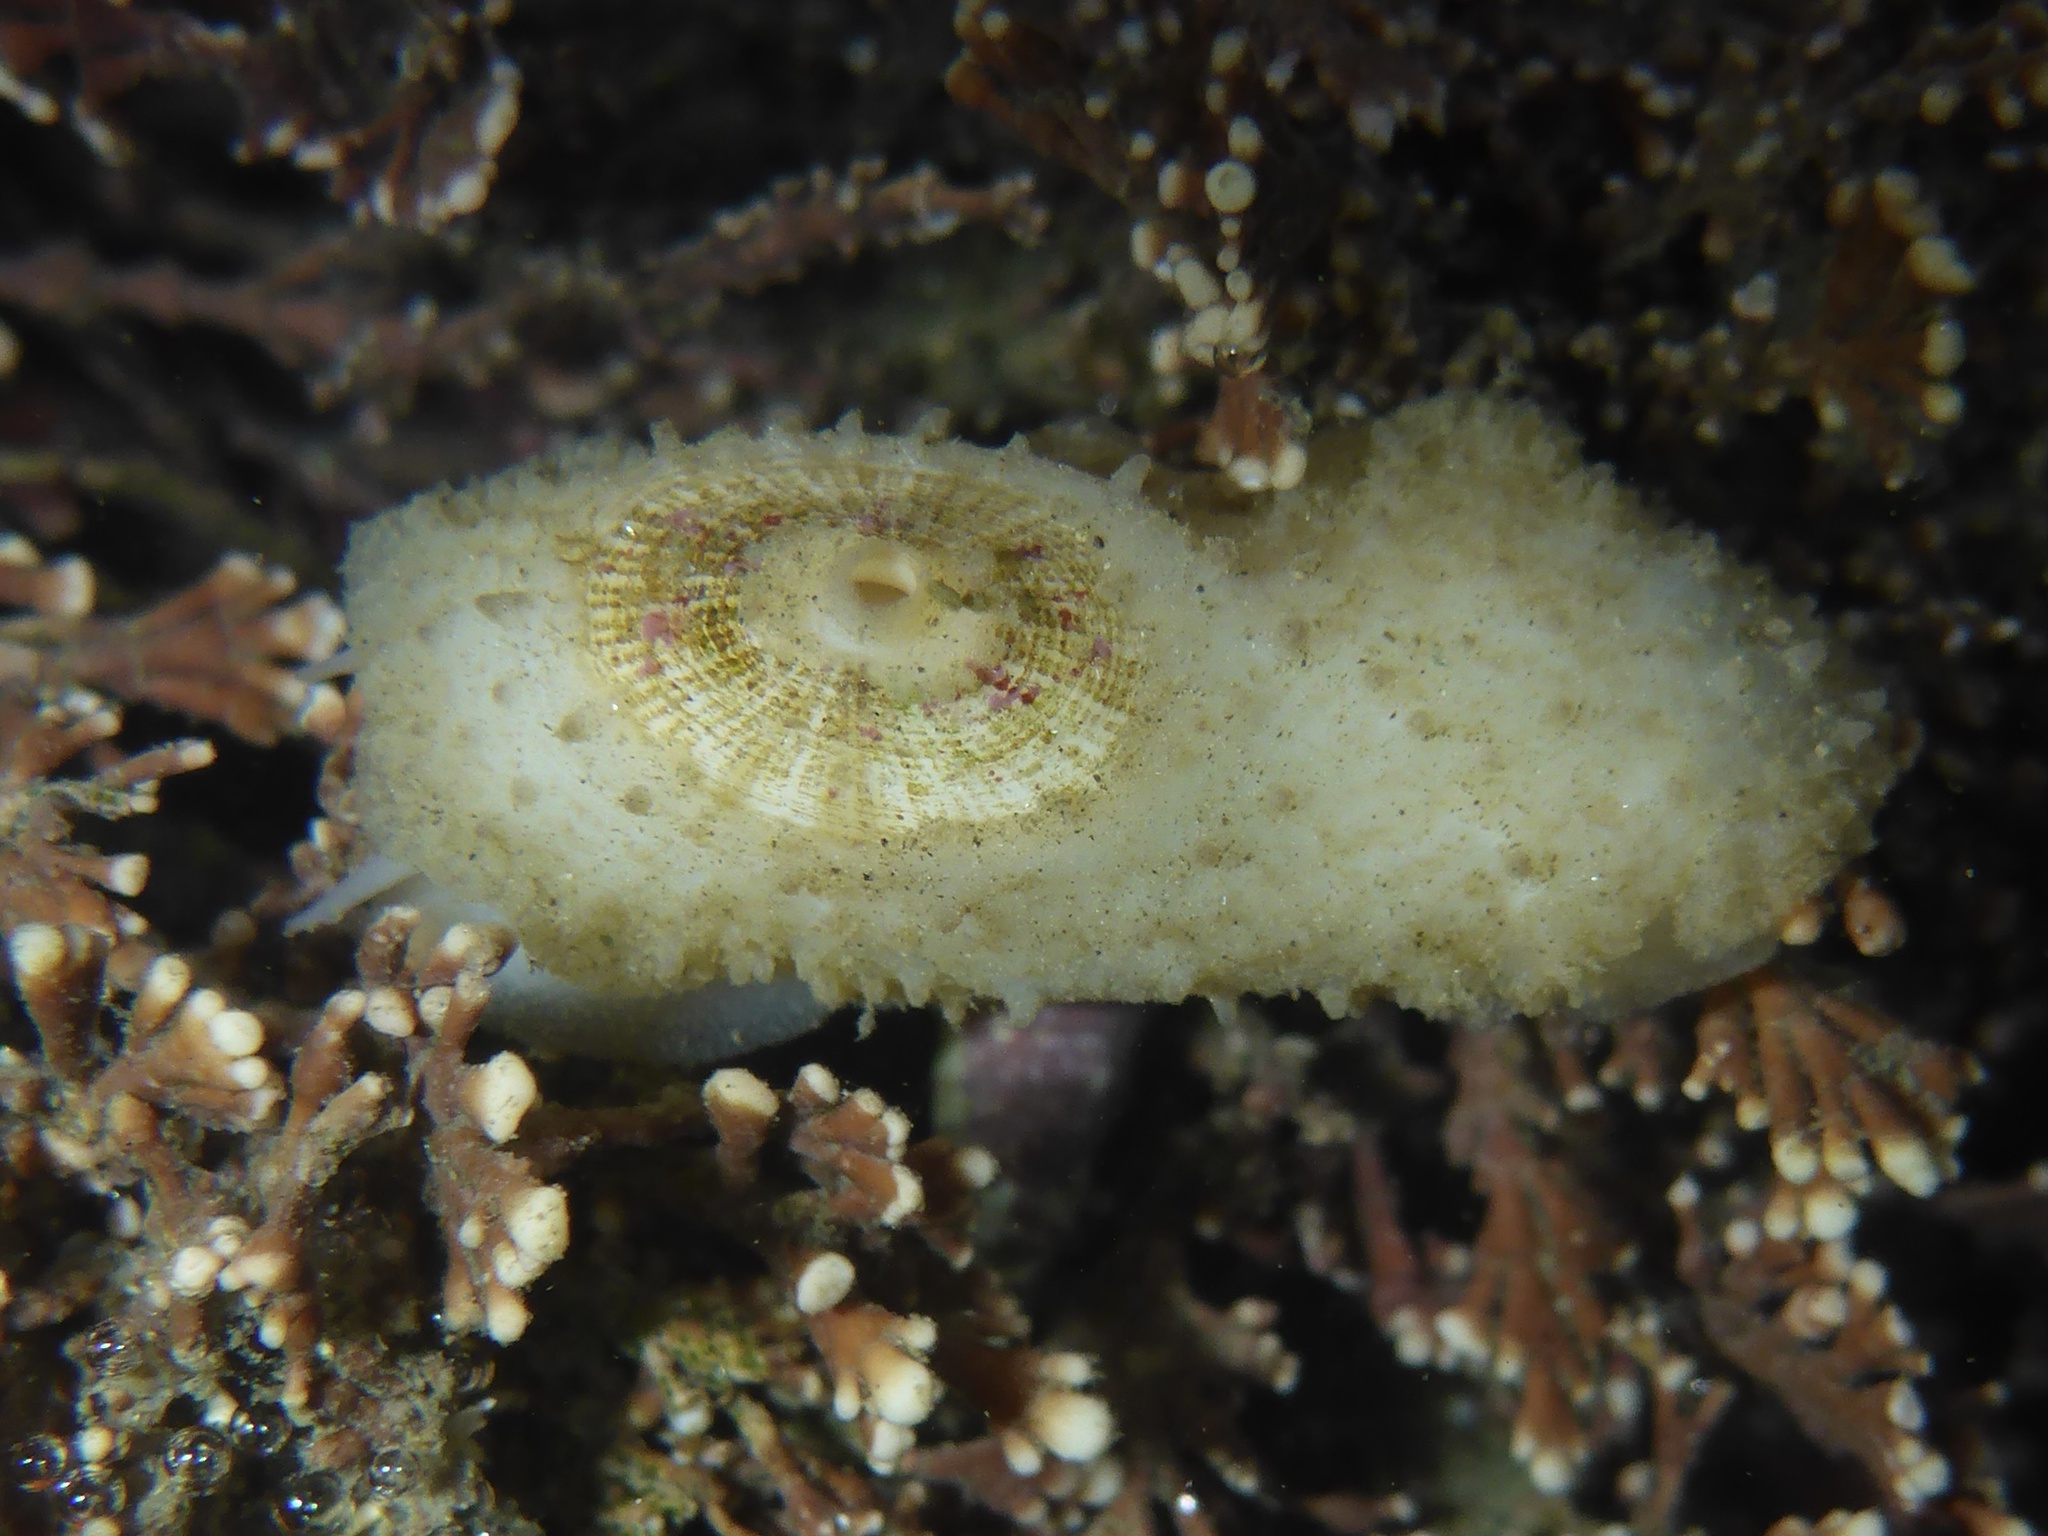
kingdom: Animalia
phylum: Mollusca
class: Gastropoda
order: Lepetellida
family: Fissurellidae
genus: Fissurellidea
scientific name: Fissurellidea bimaculata
